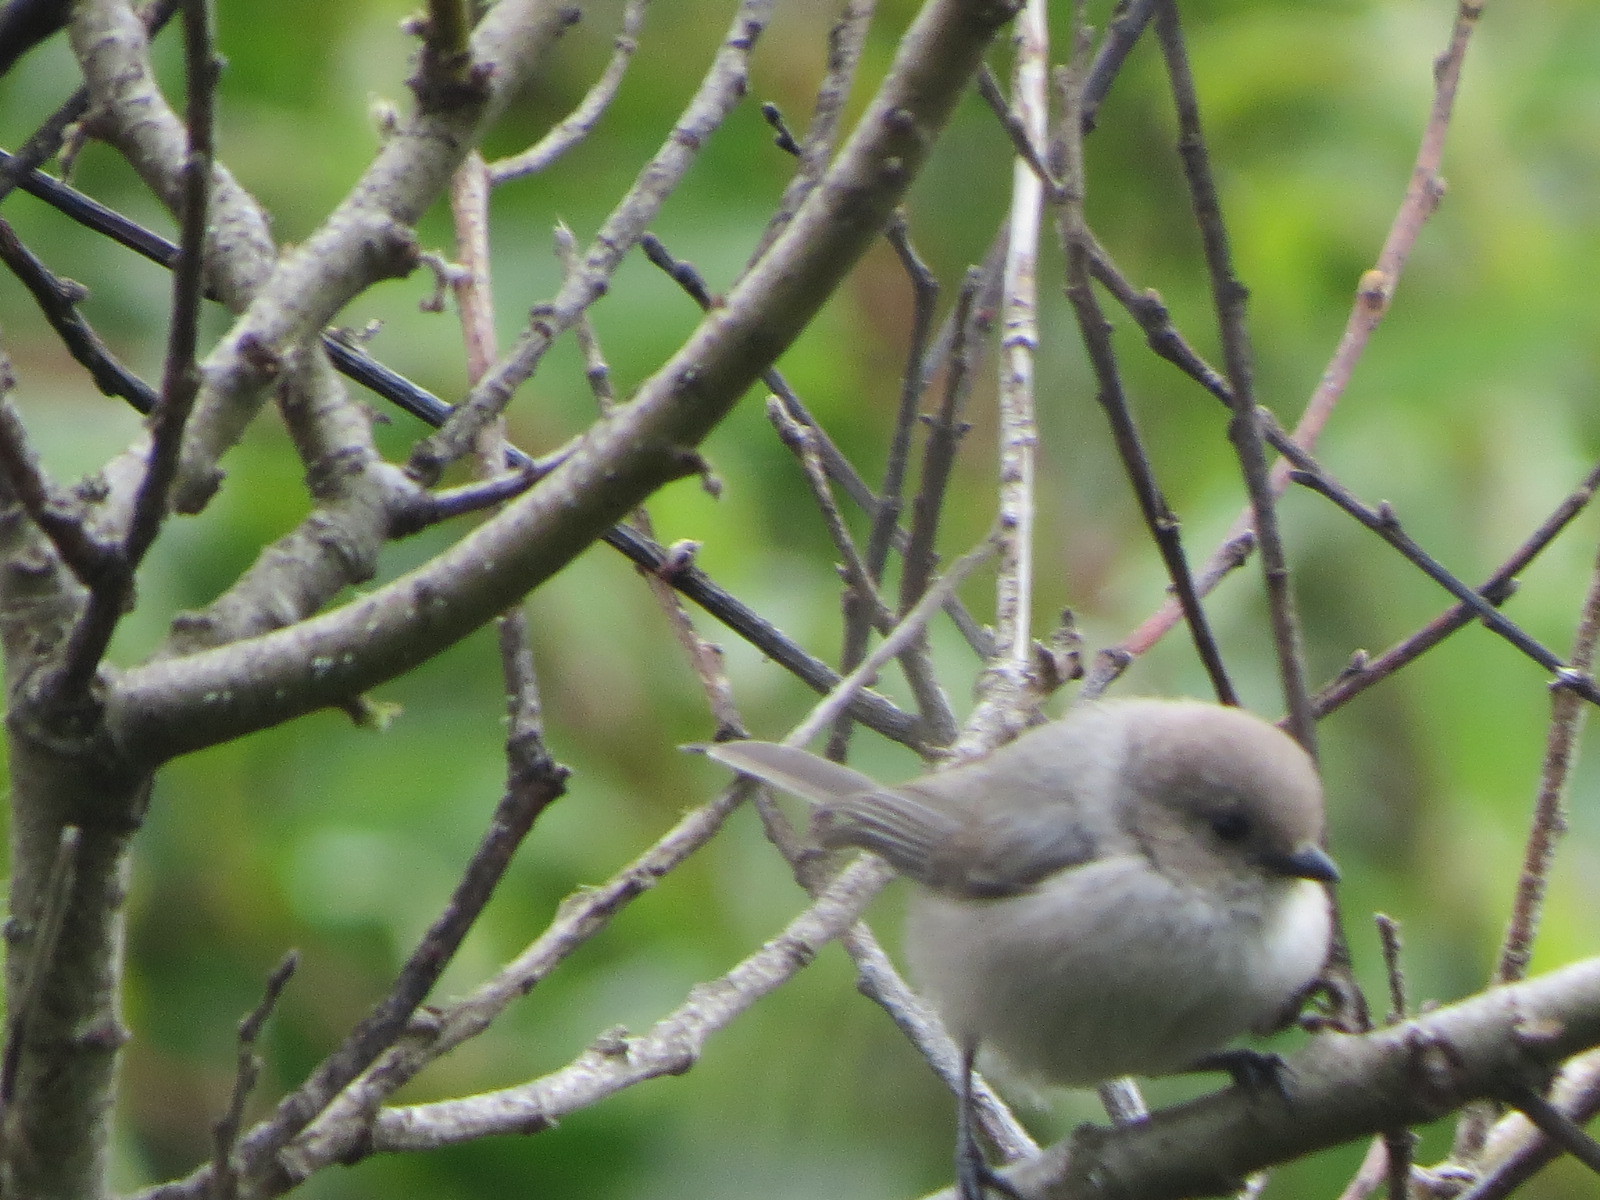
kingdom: Animalia
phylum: Chordata
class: Aves
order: Passeriformes
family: Aegithalidae
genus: Psaltriparus
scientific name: Psaltriparus minimus
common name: American bushtit
